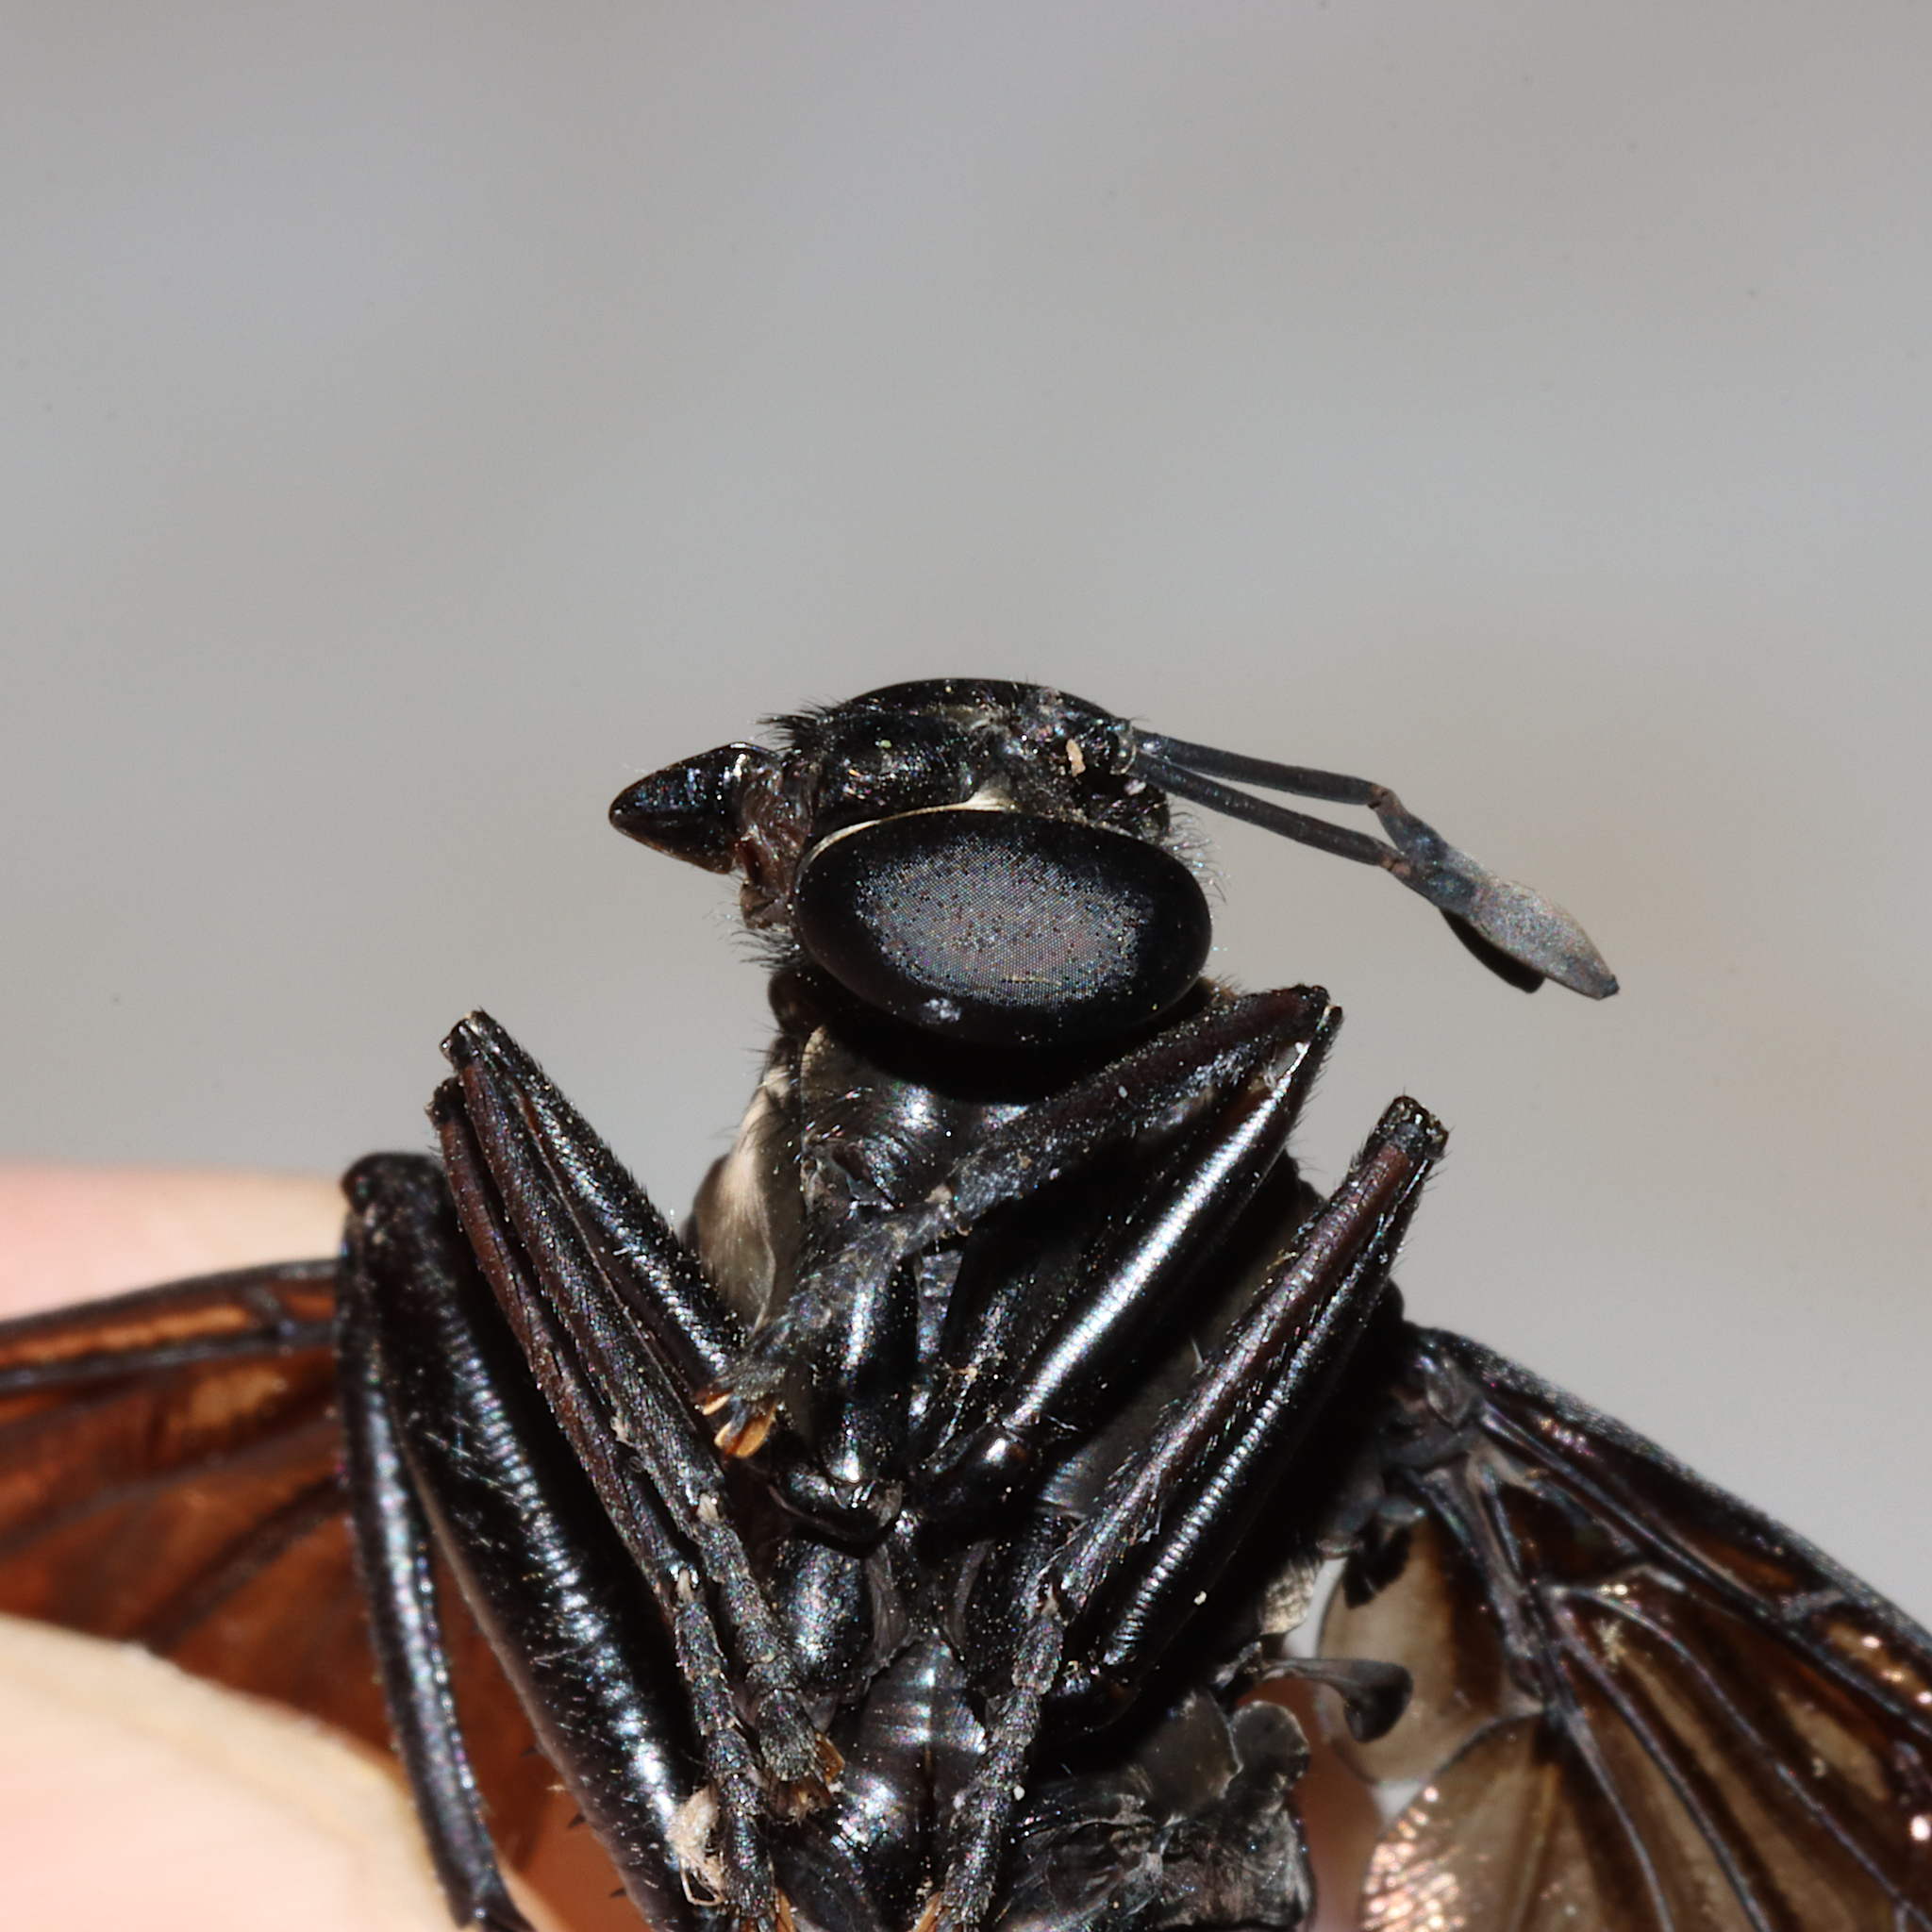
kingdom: Animalia
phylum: Arthropoda
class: Insecta
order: Diptera
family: Mydidae
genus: Mydas
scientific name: Mydas fulvifrons
